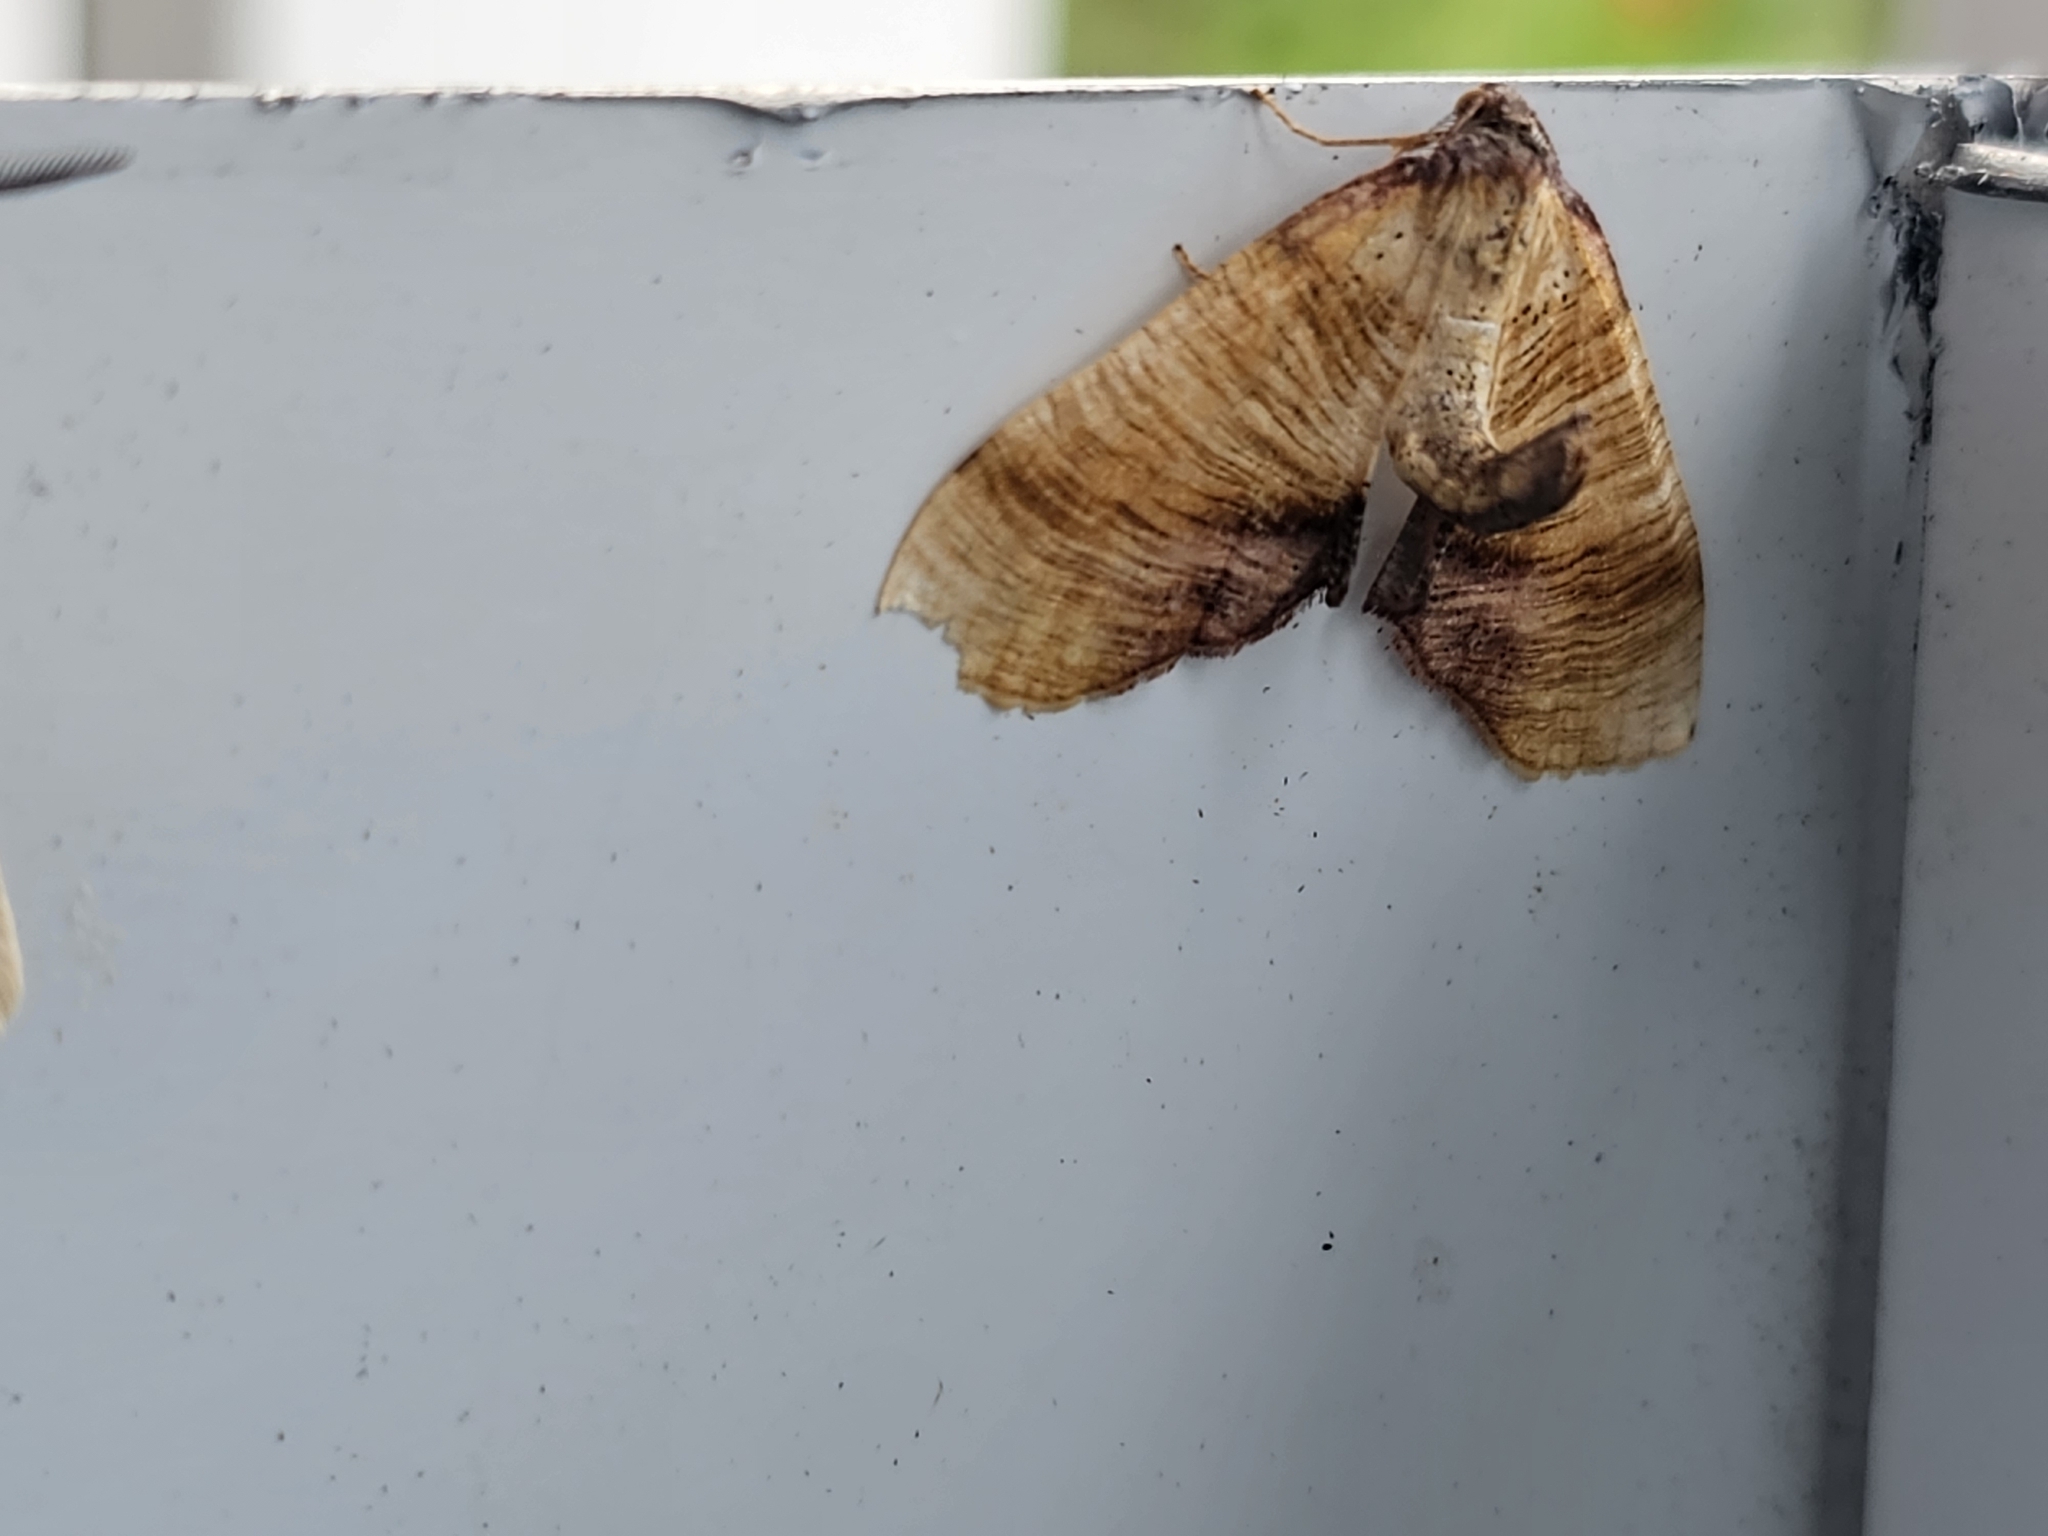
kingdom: Animalia
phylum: Arthropoda
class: Insecta
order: Lepidoptera
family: Geometridae
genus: Plagodis
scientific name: Plagodis dolabraria
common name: Scorched wing
